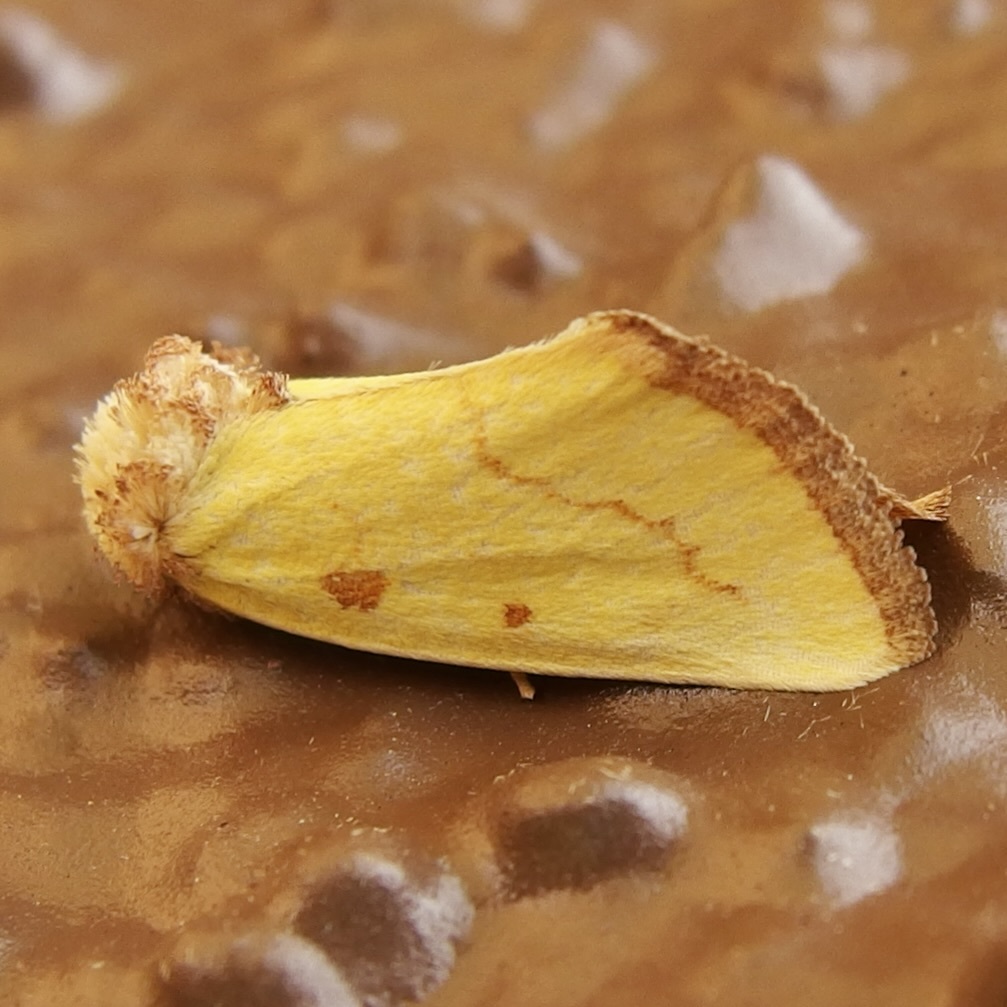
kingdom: Animalia
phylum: Arthropoda
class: Insecta
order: Lepidoptera
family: Noctuidae
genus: Nocloa
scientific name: Nocloa aliaga
